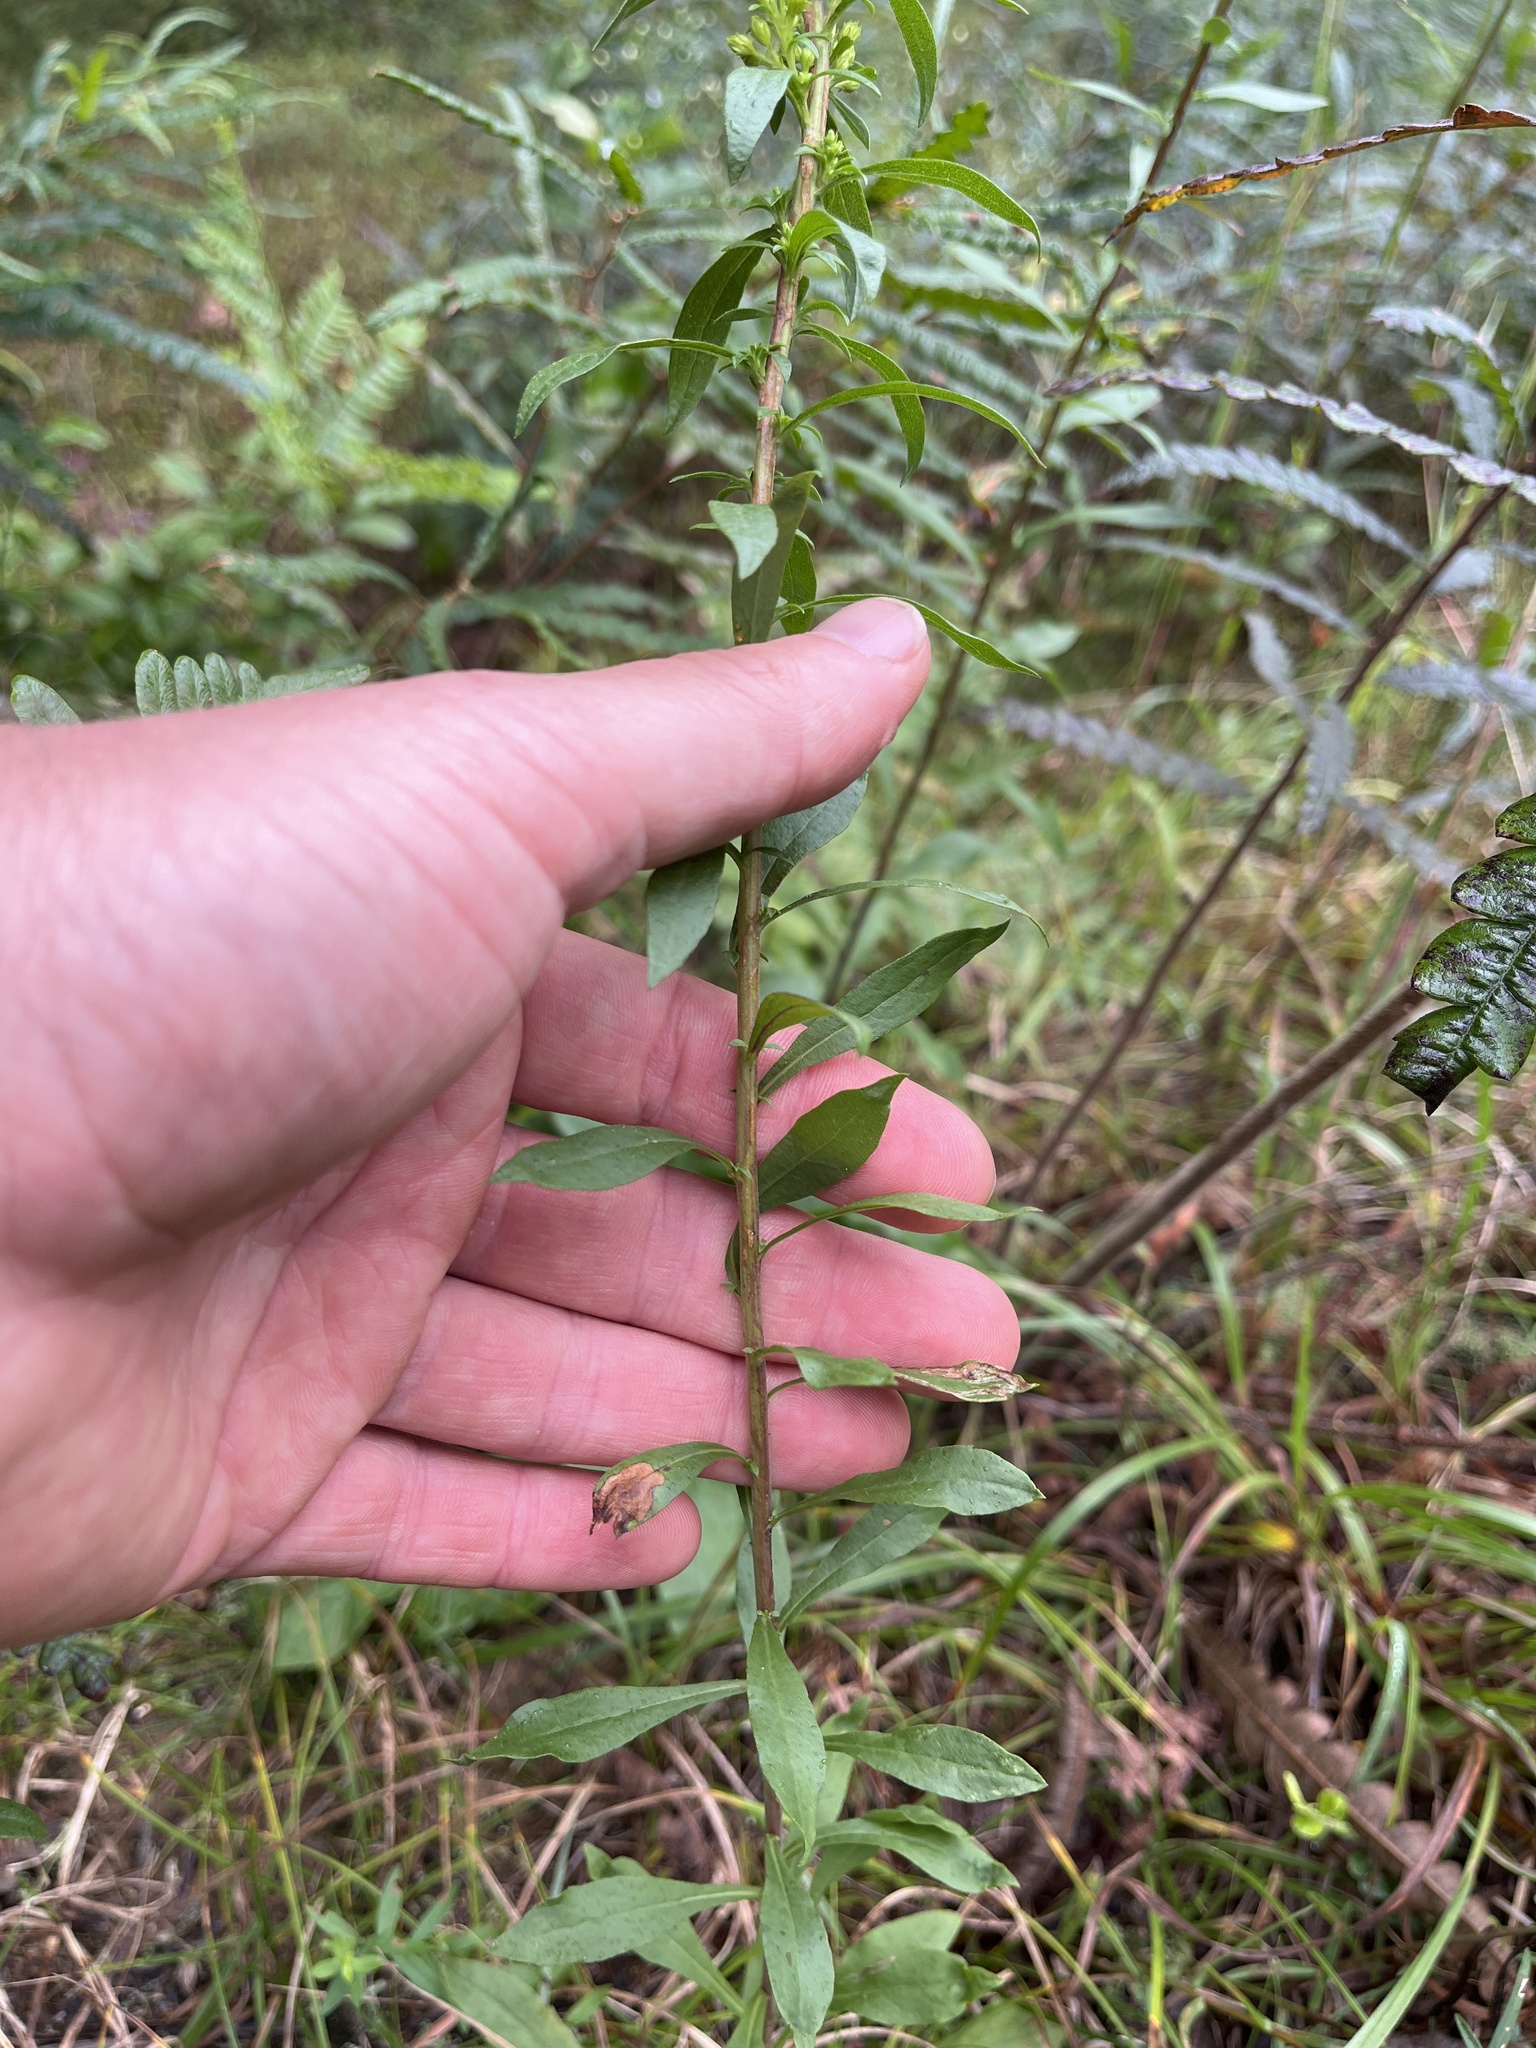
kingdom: Plantae
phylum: Tracheophyta
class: Magnoliopsida
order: Asterales
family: Asteraceae
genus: Solidago
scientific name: Solidago puberula
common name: Downy goldenrod
